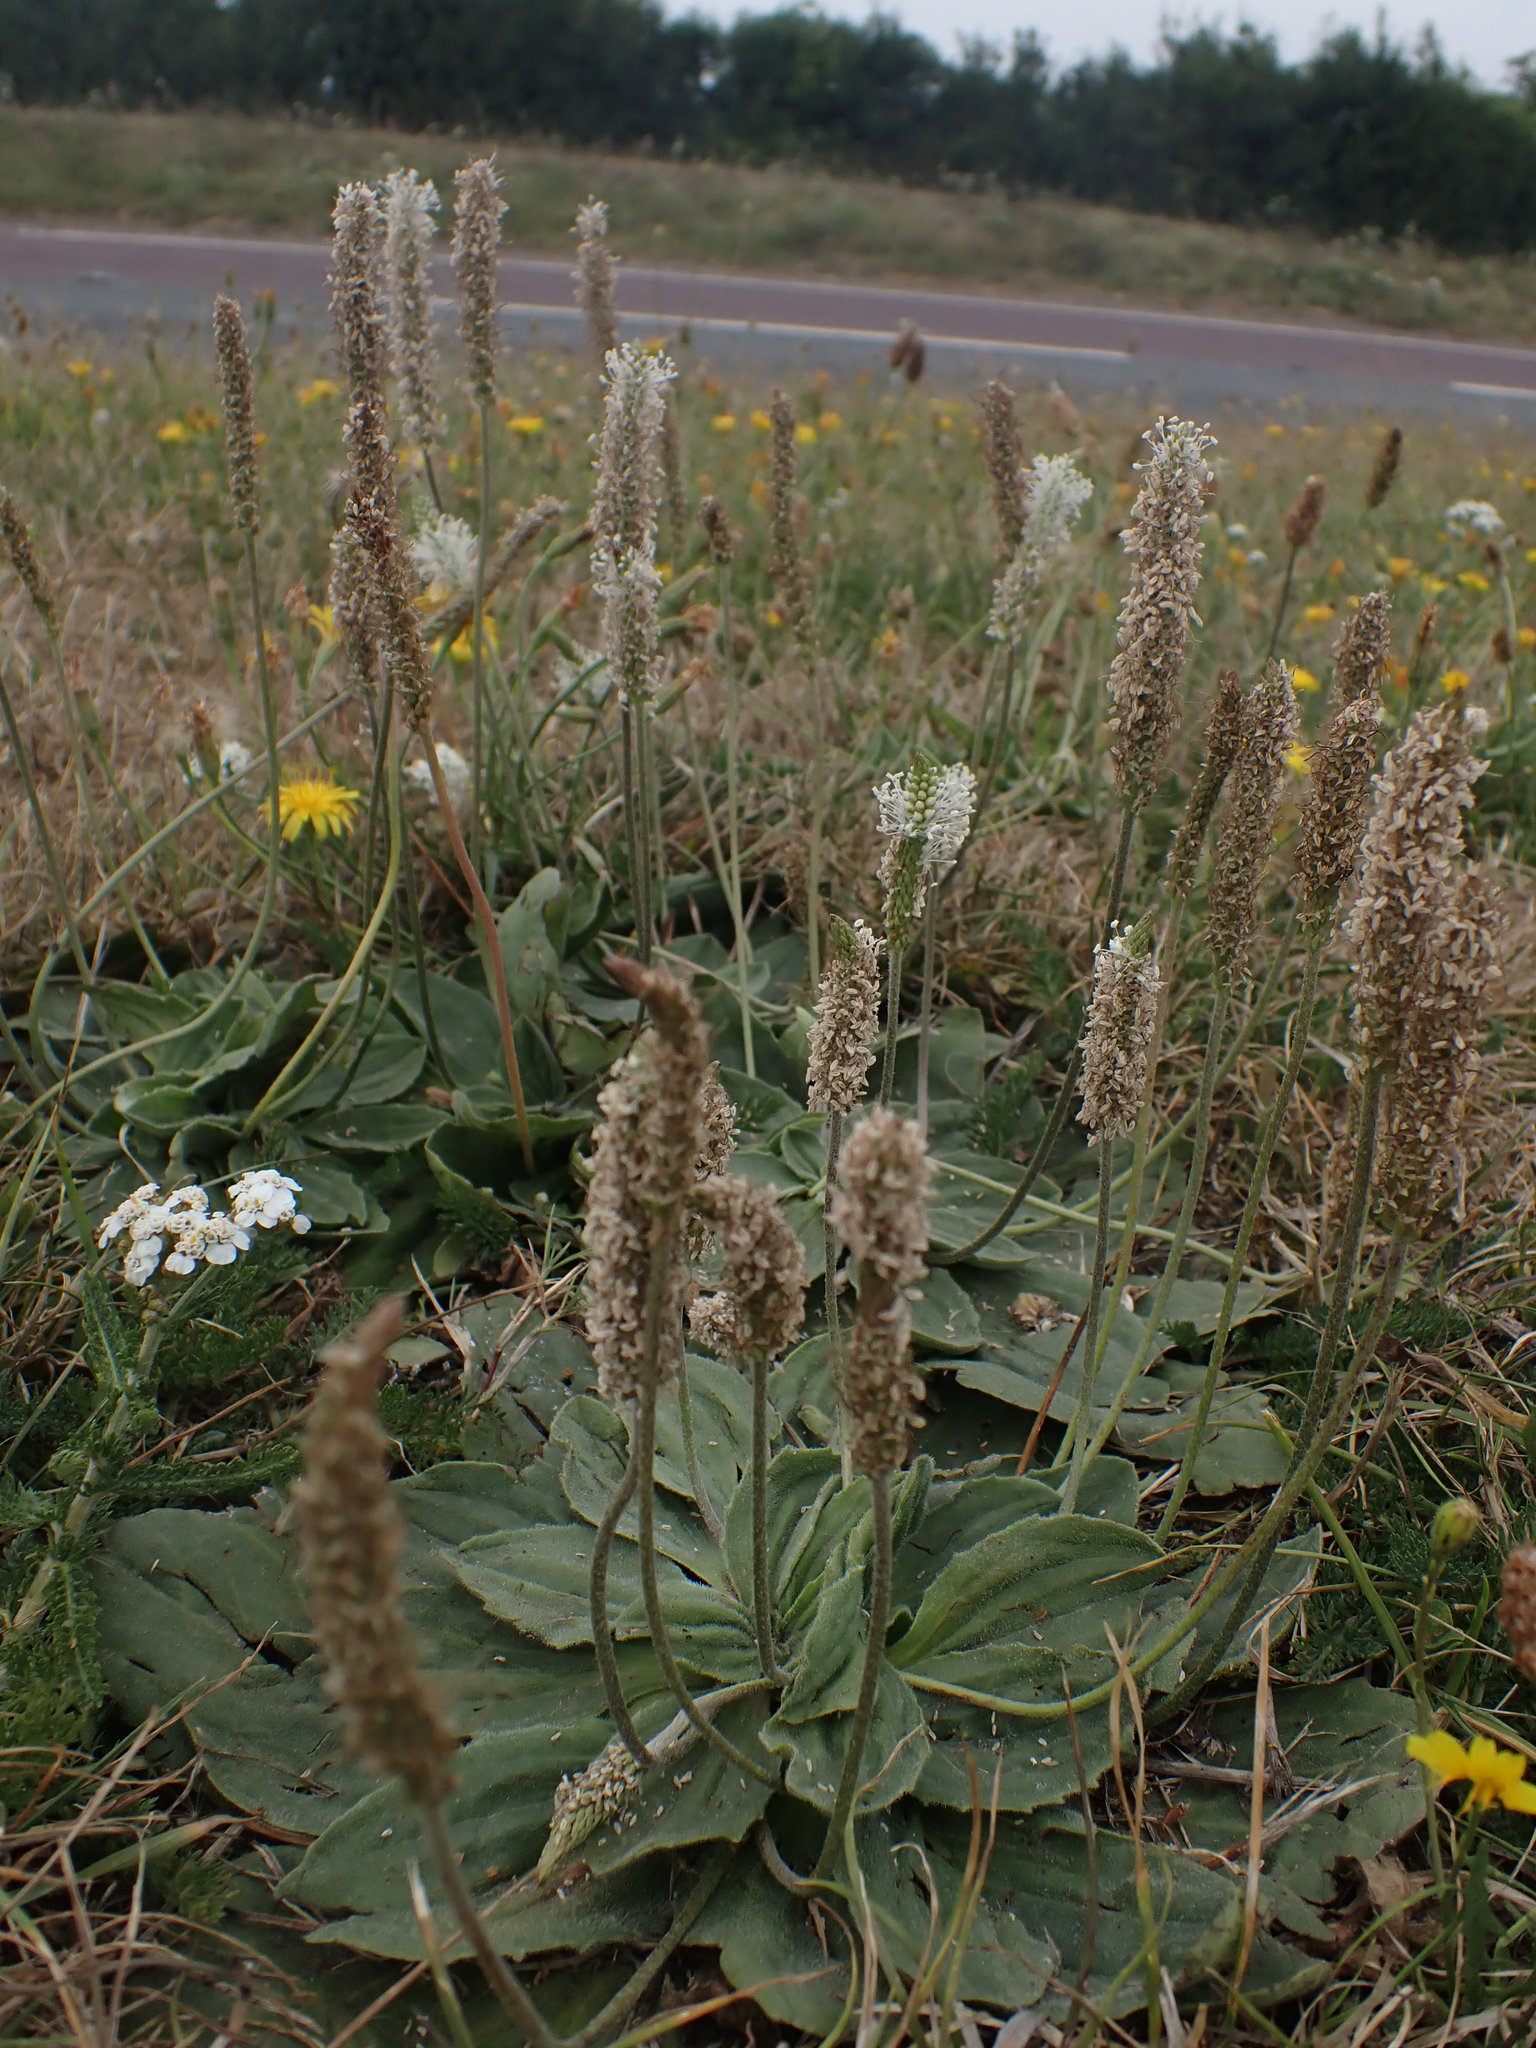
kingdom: Plantae
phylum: Tracheophyta
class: Magnoliopsida
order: Lamiales
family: Plantaginaceae
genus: Plantago
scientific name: Plantago media
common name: Hoary plantain
